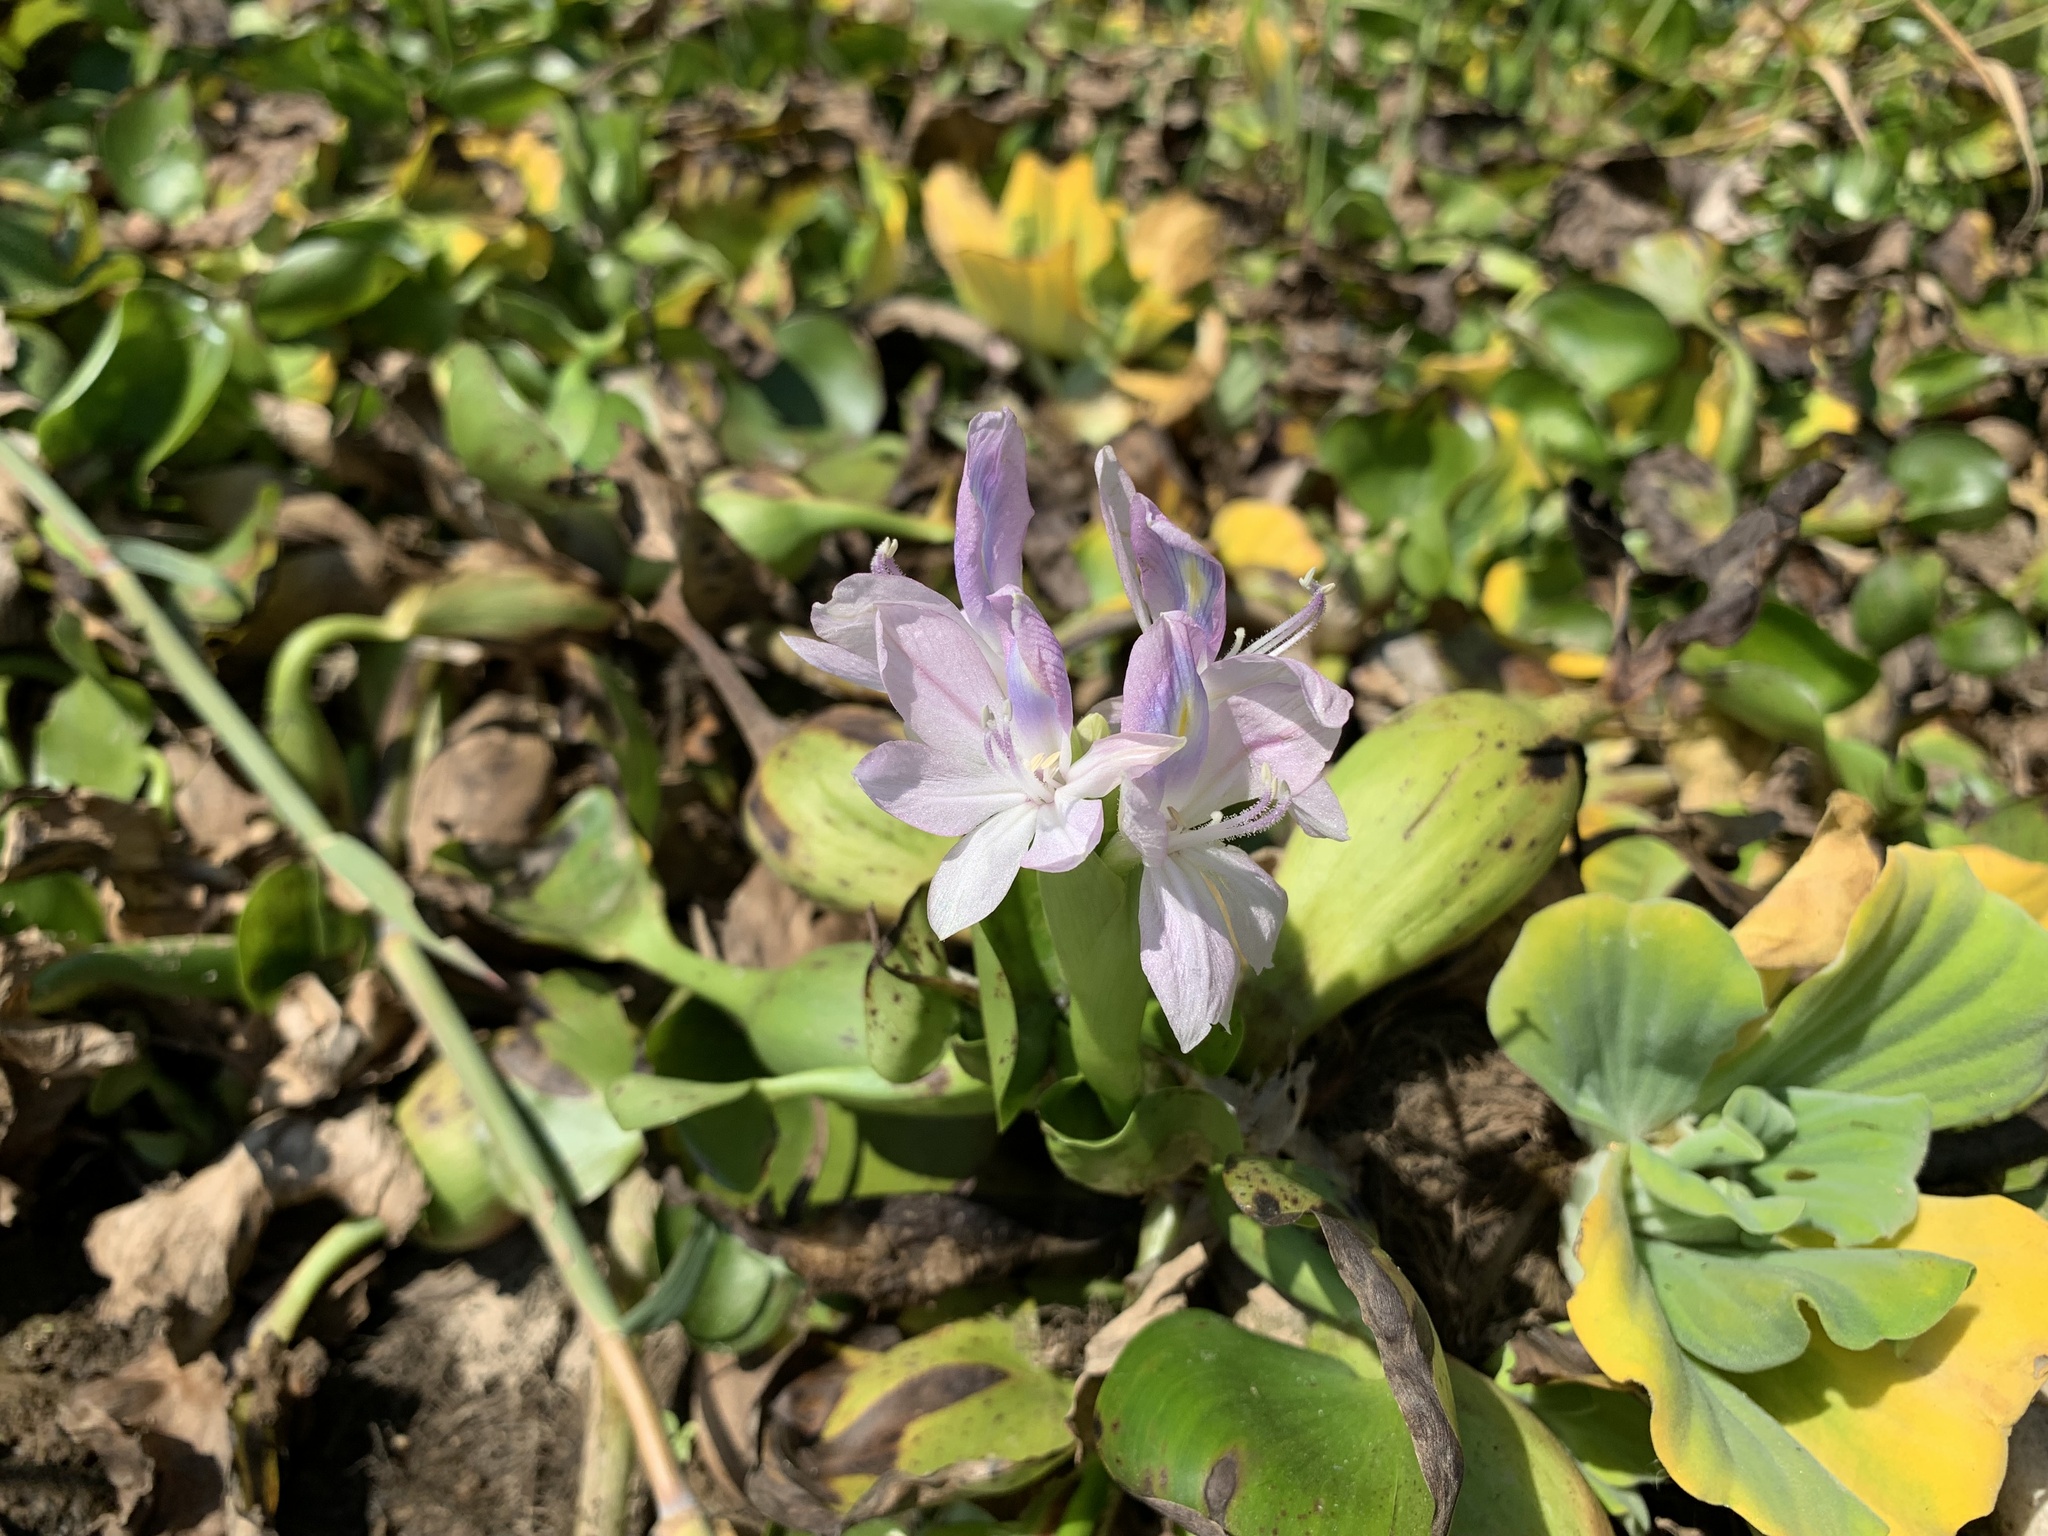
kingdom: Plantae
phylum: Tracheophyta
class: Liliopsida
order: Commelinales
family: Pontederiaceae
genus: Pontederia
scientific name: Pontederia crassipes
